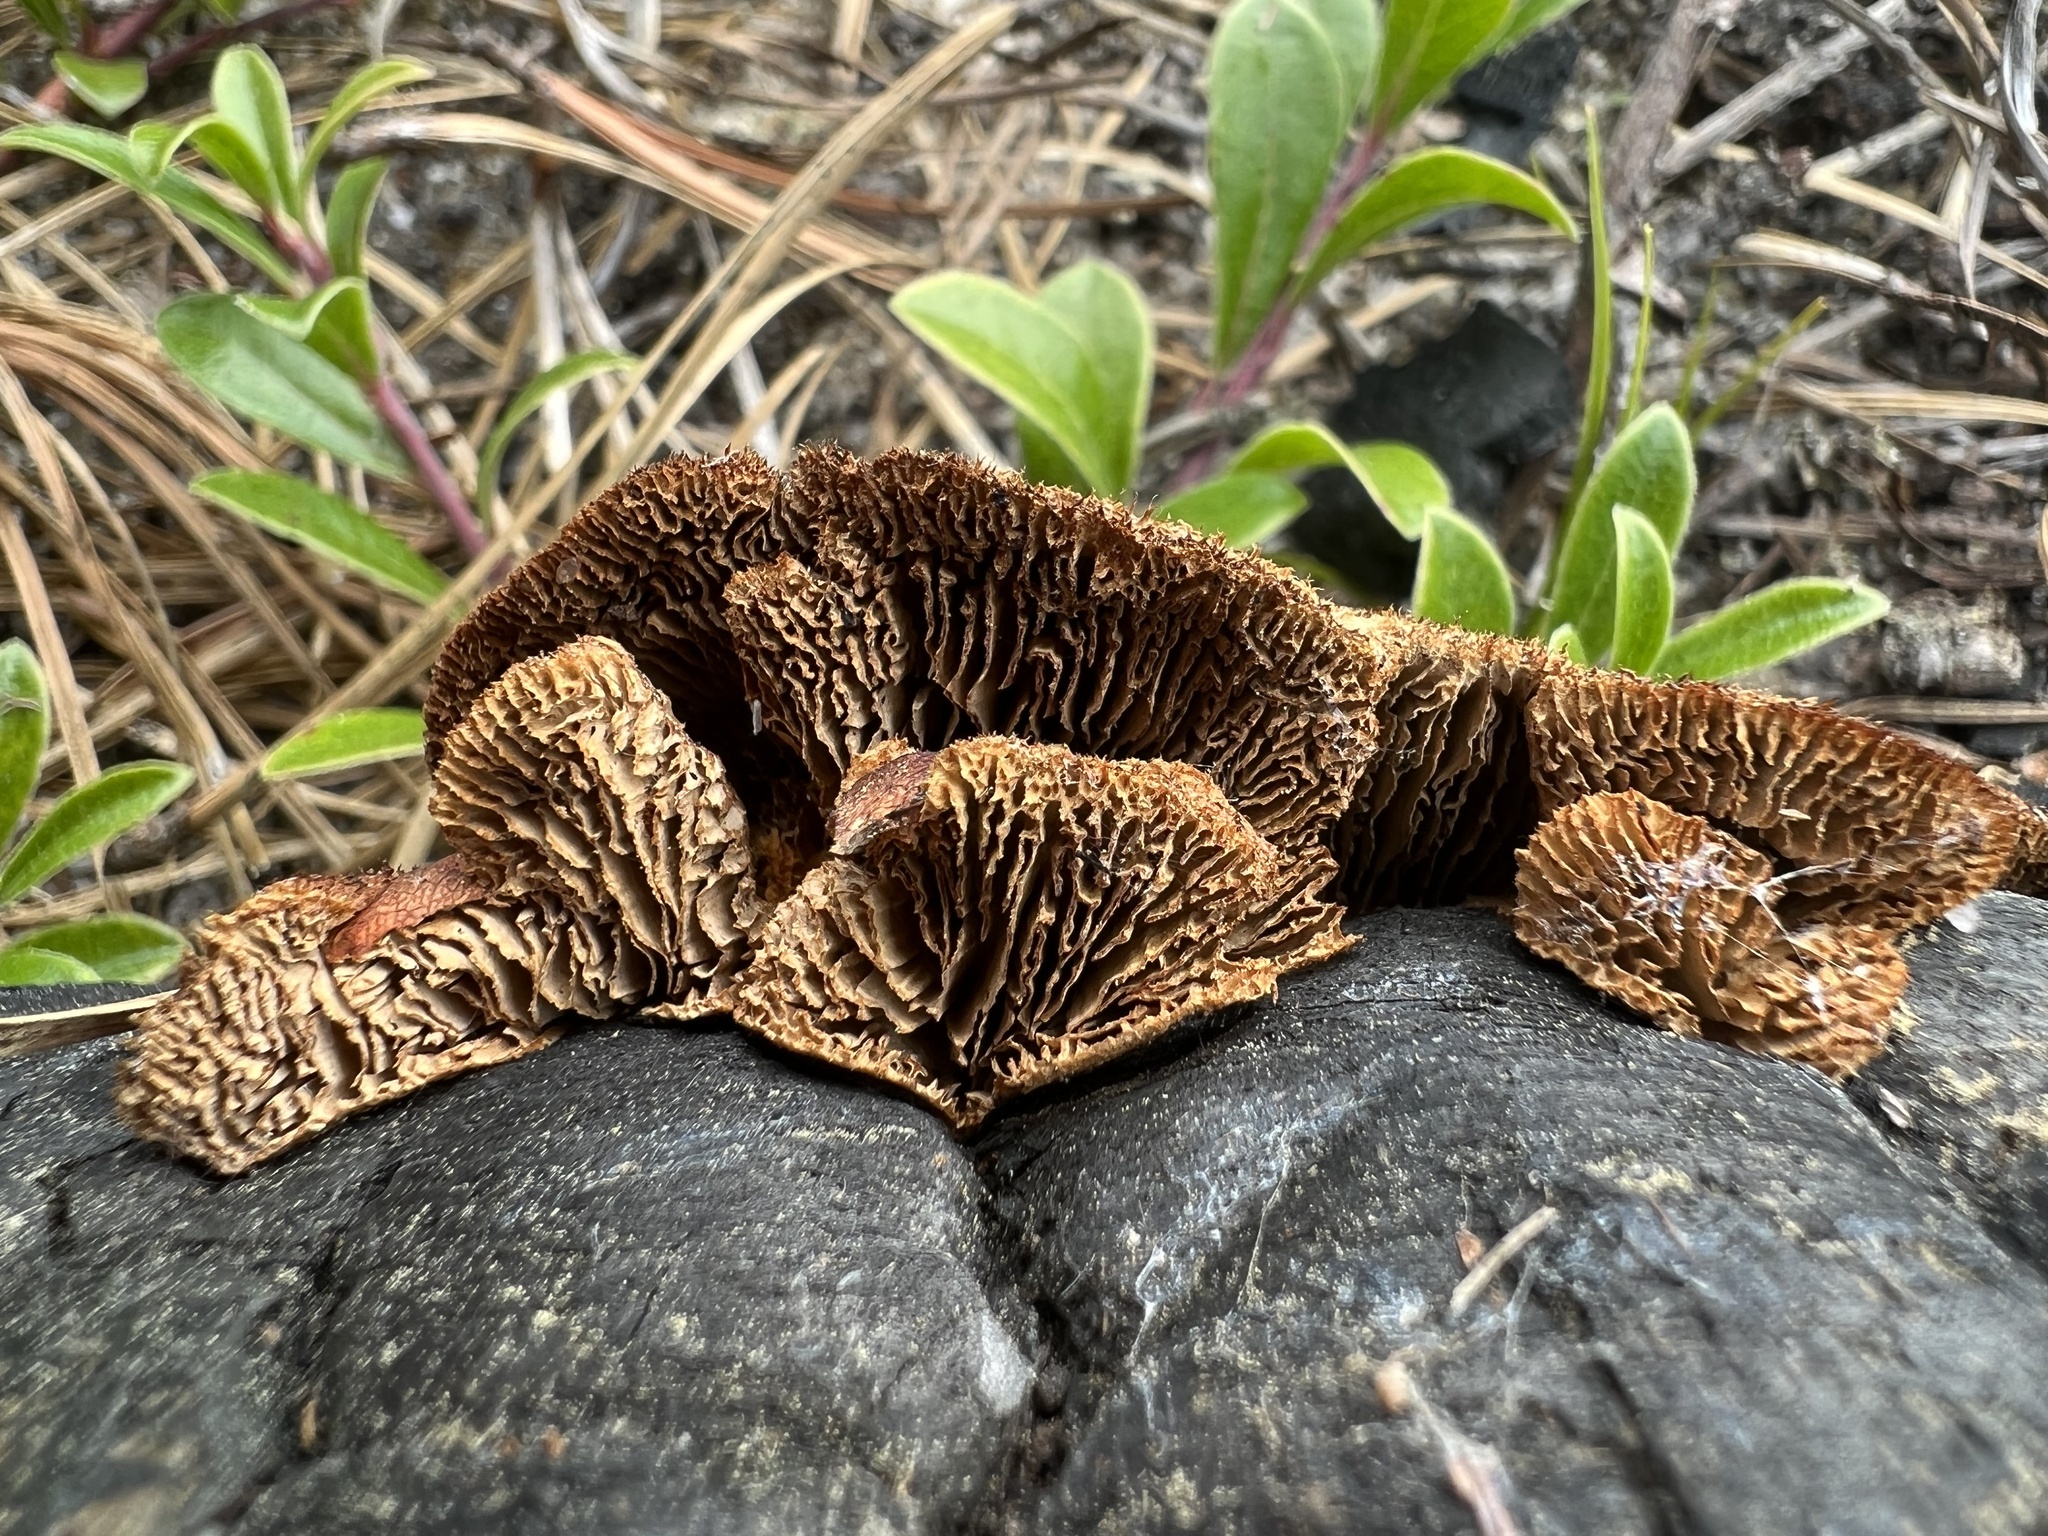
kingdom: Fungi
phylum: Basidiomycota
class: Agaricomycetes
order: Gloeophyllales
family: Gloeophyllaceae
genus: Gloeophyllum
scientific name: Gloeophyllum sepiarium
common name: Conifer mazegill
